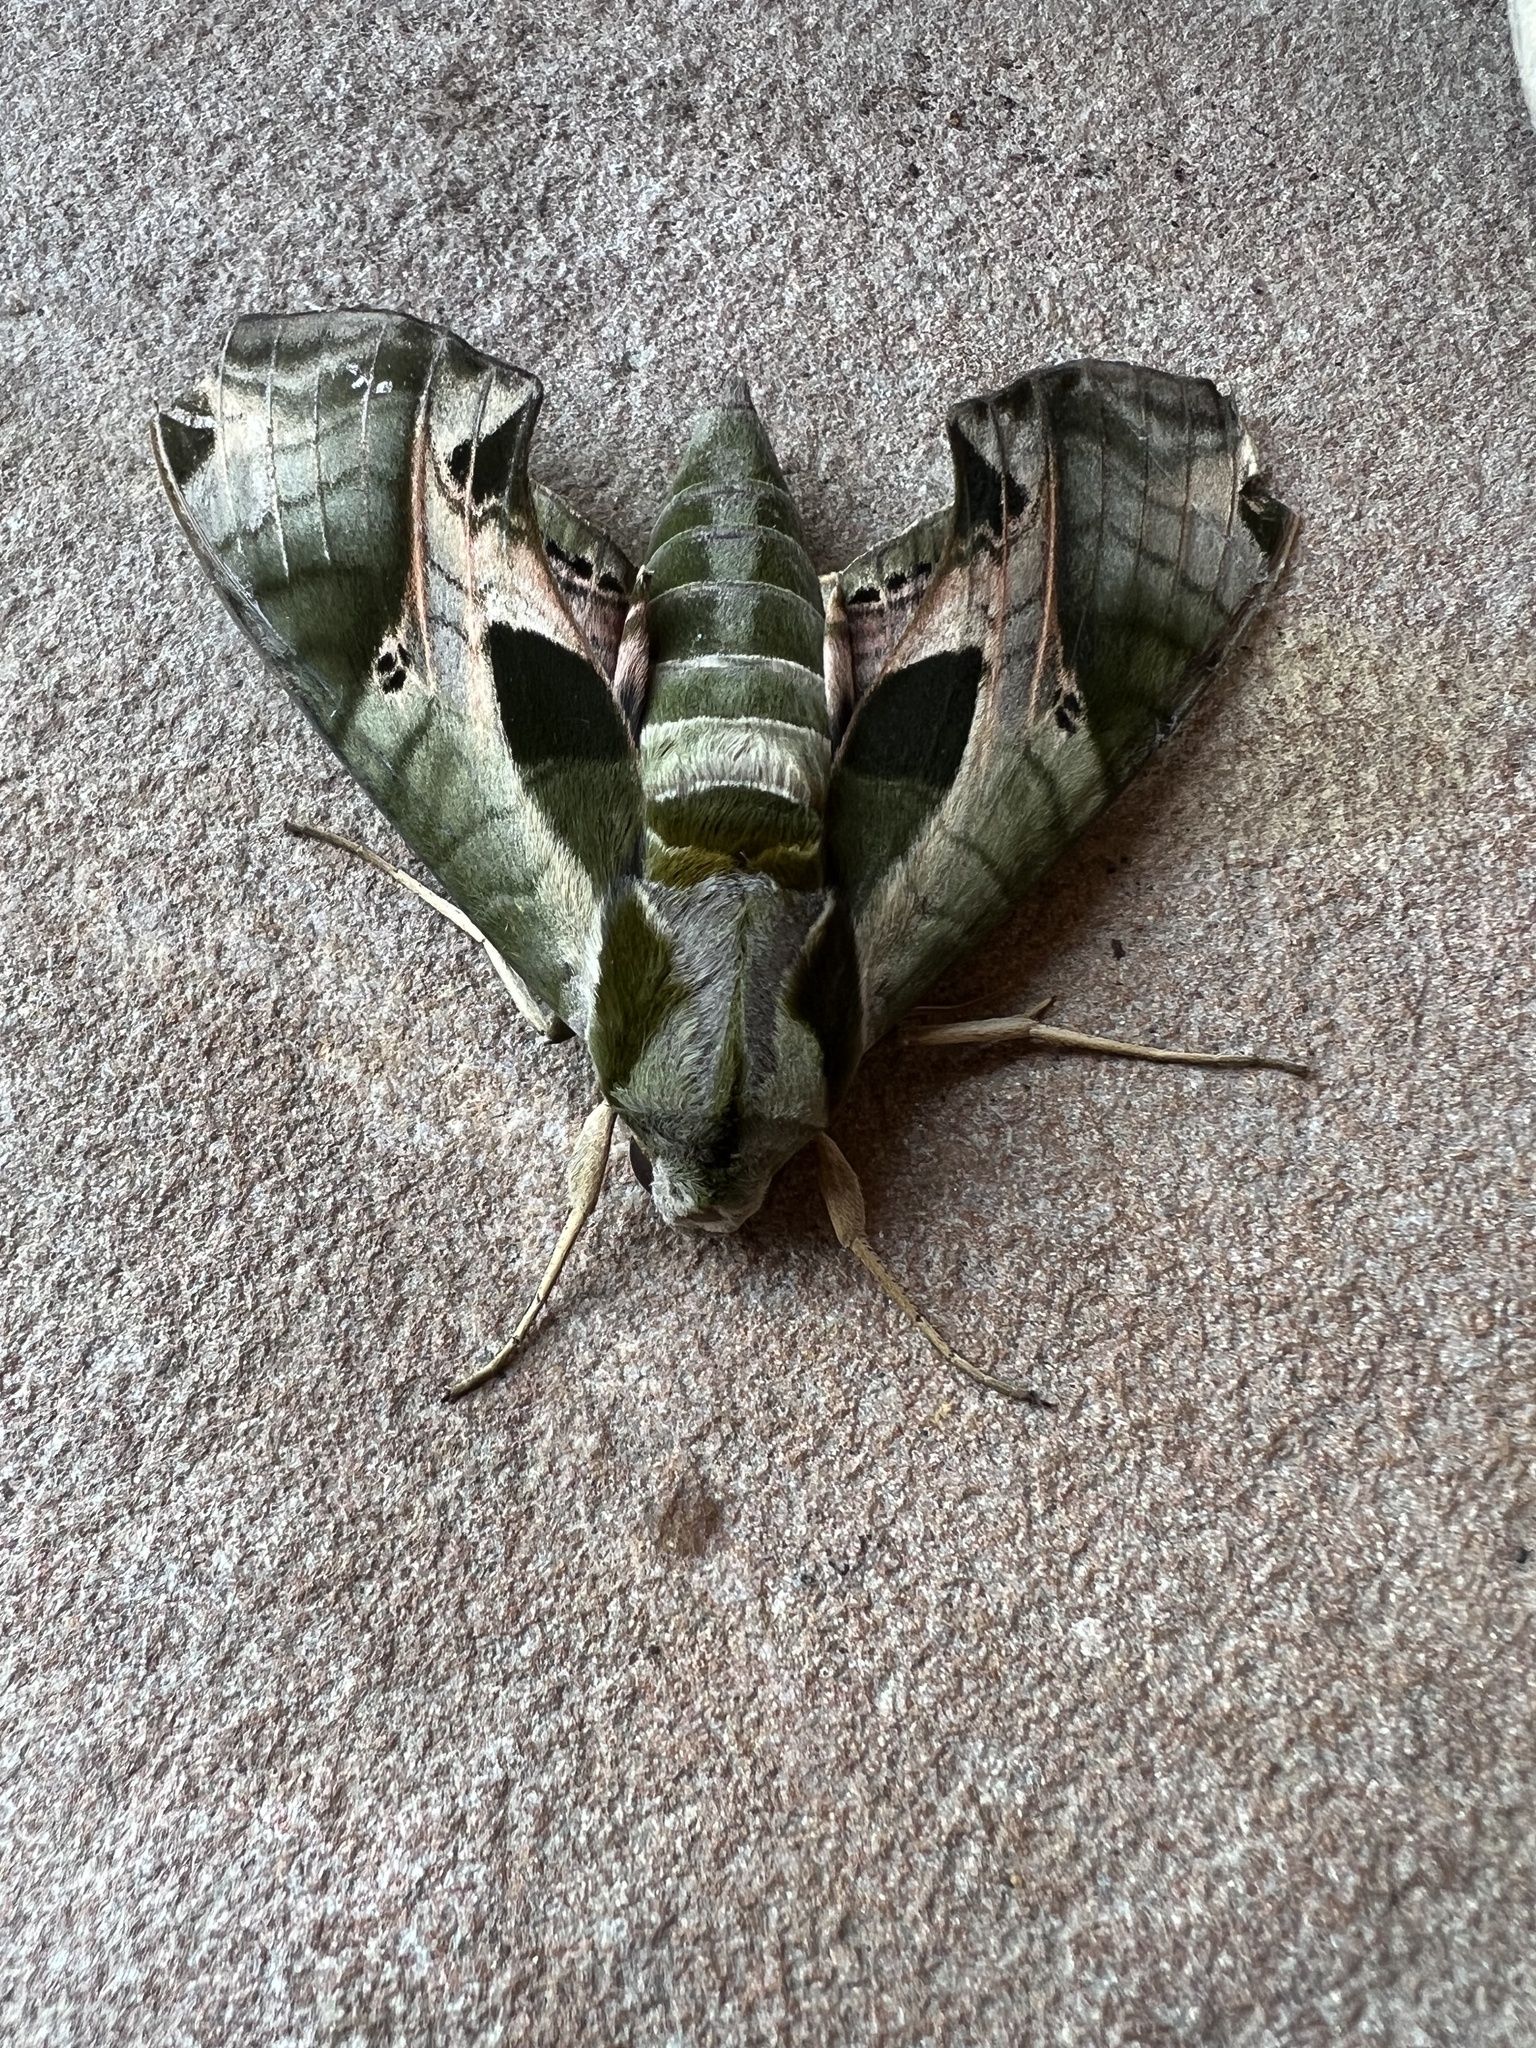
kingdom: Animalia
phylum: Arthropoda
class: Insecta
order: Lepidoptera
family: Sphingidae
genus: Eumorpha
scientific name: Eumorpha pandorus
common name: Pandora sphinx
